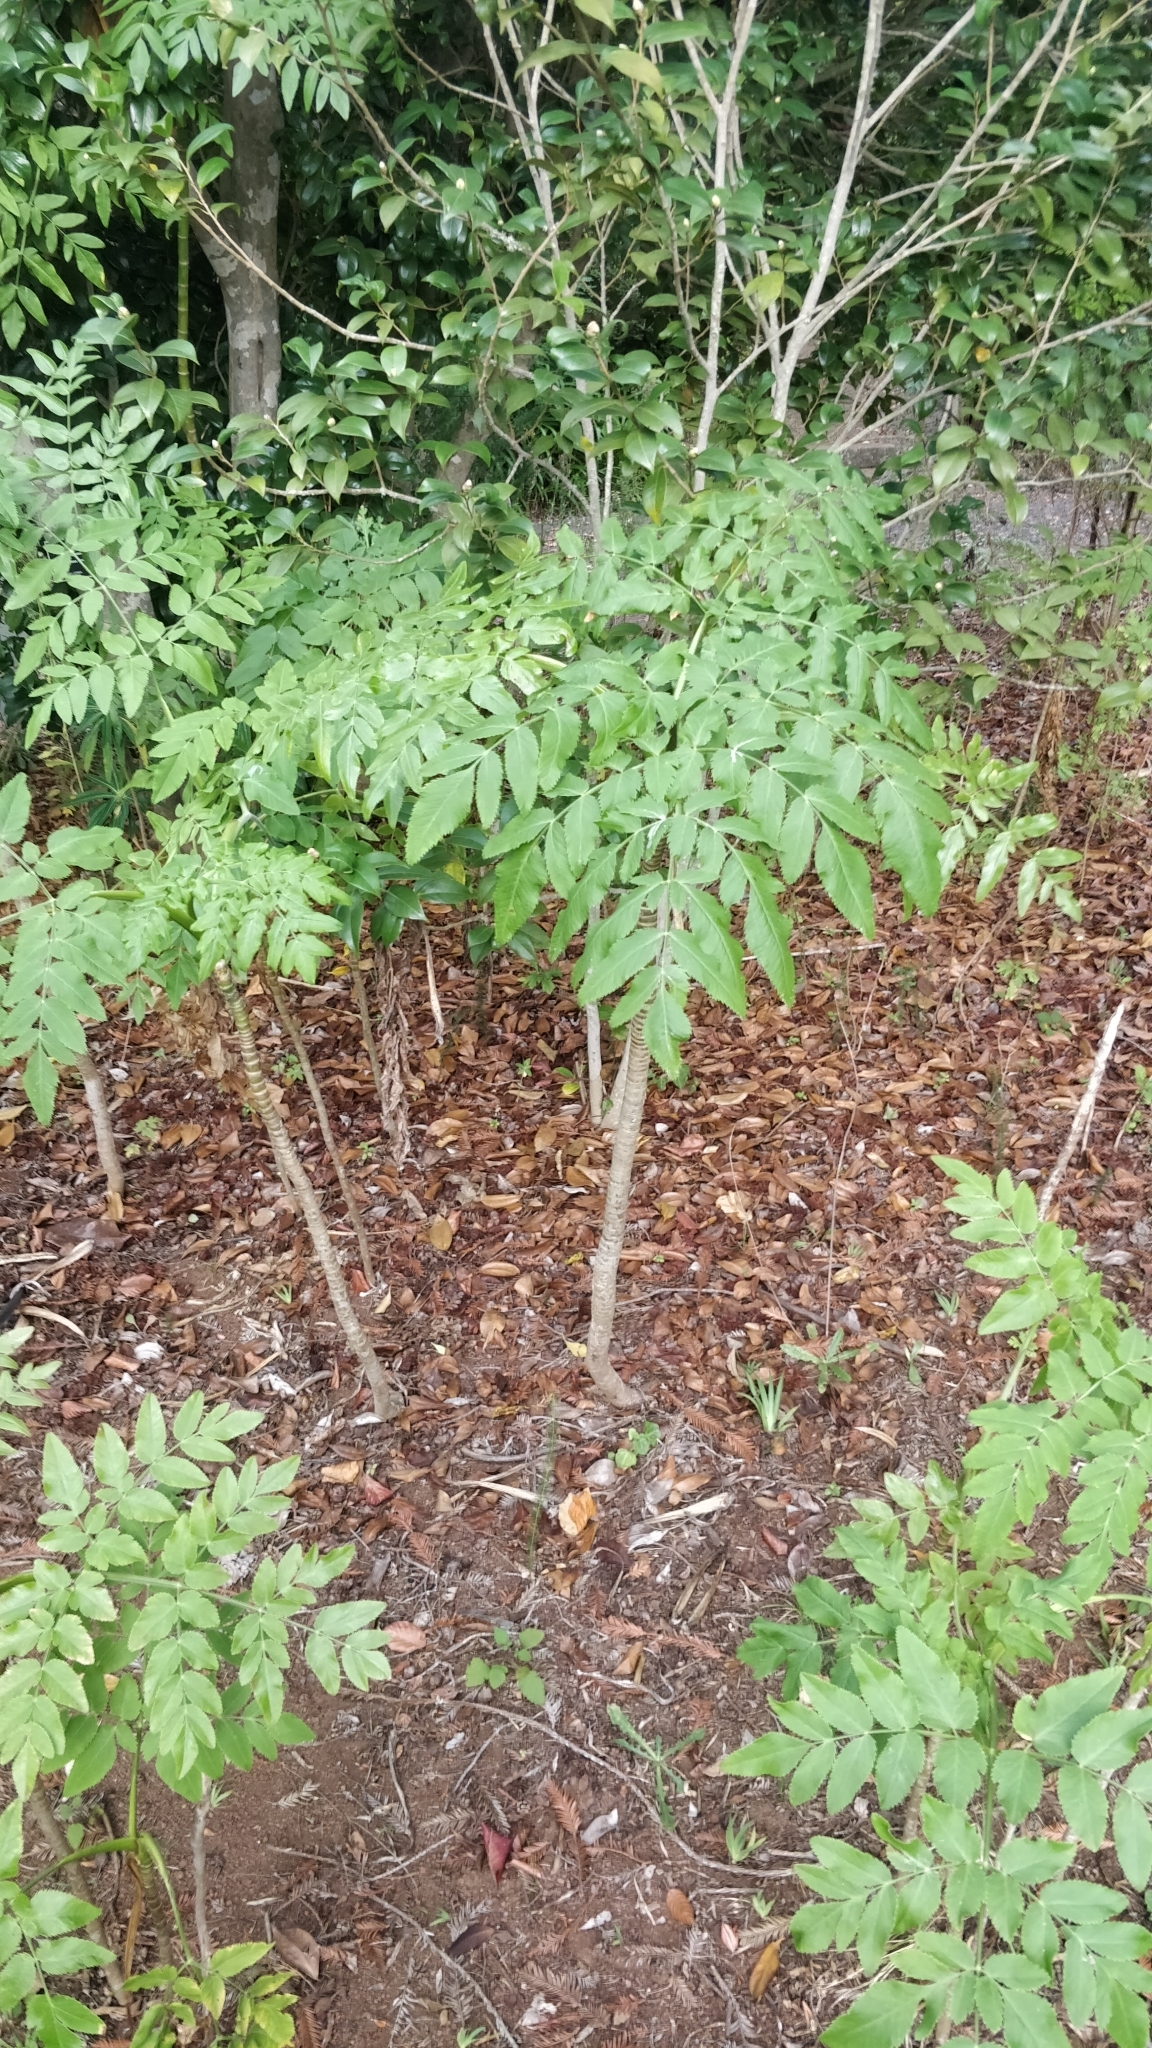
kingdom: Plantae
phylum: Tracheophyta
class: Magnoliopsida
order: Apiales
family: Apiaceae
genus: Daucus
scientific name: Daucus decipiens
